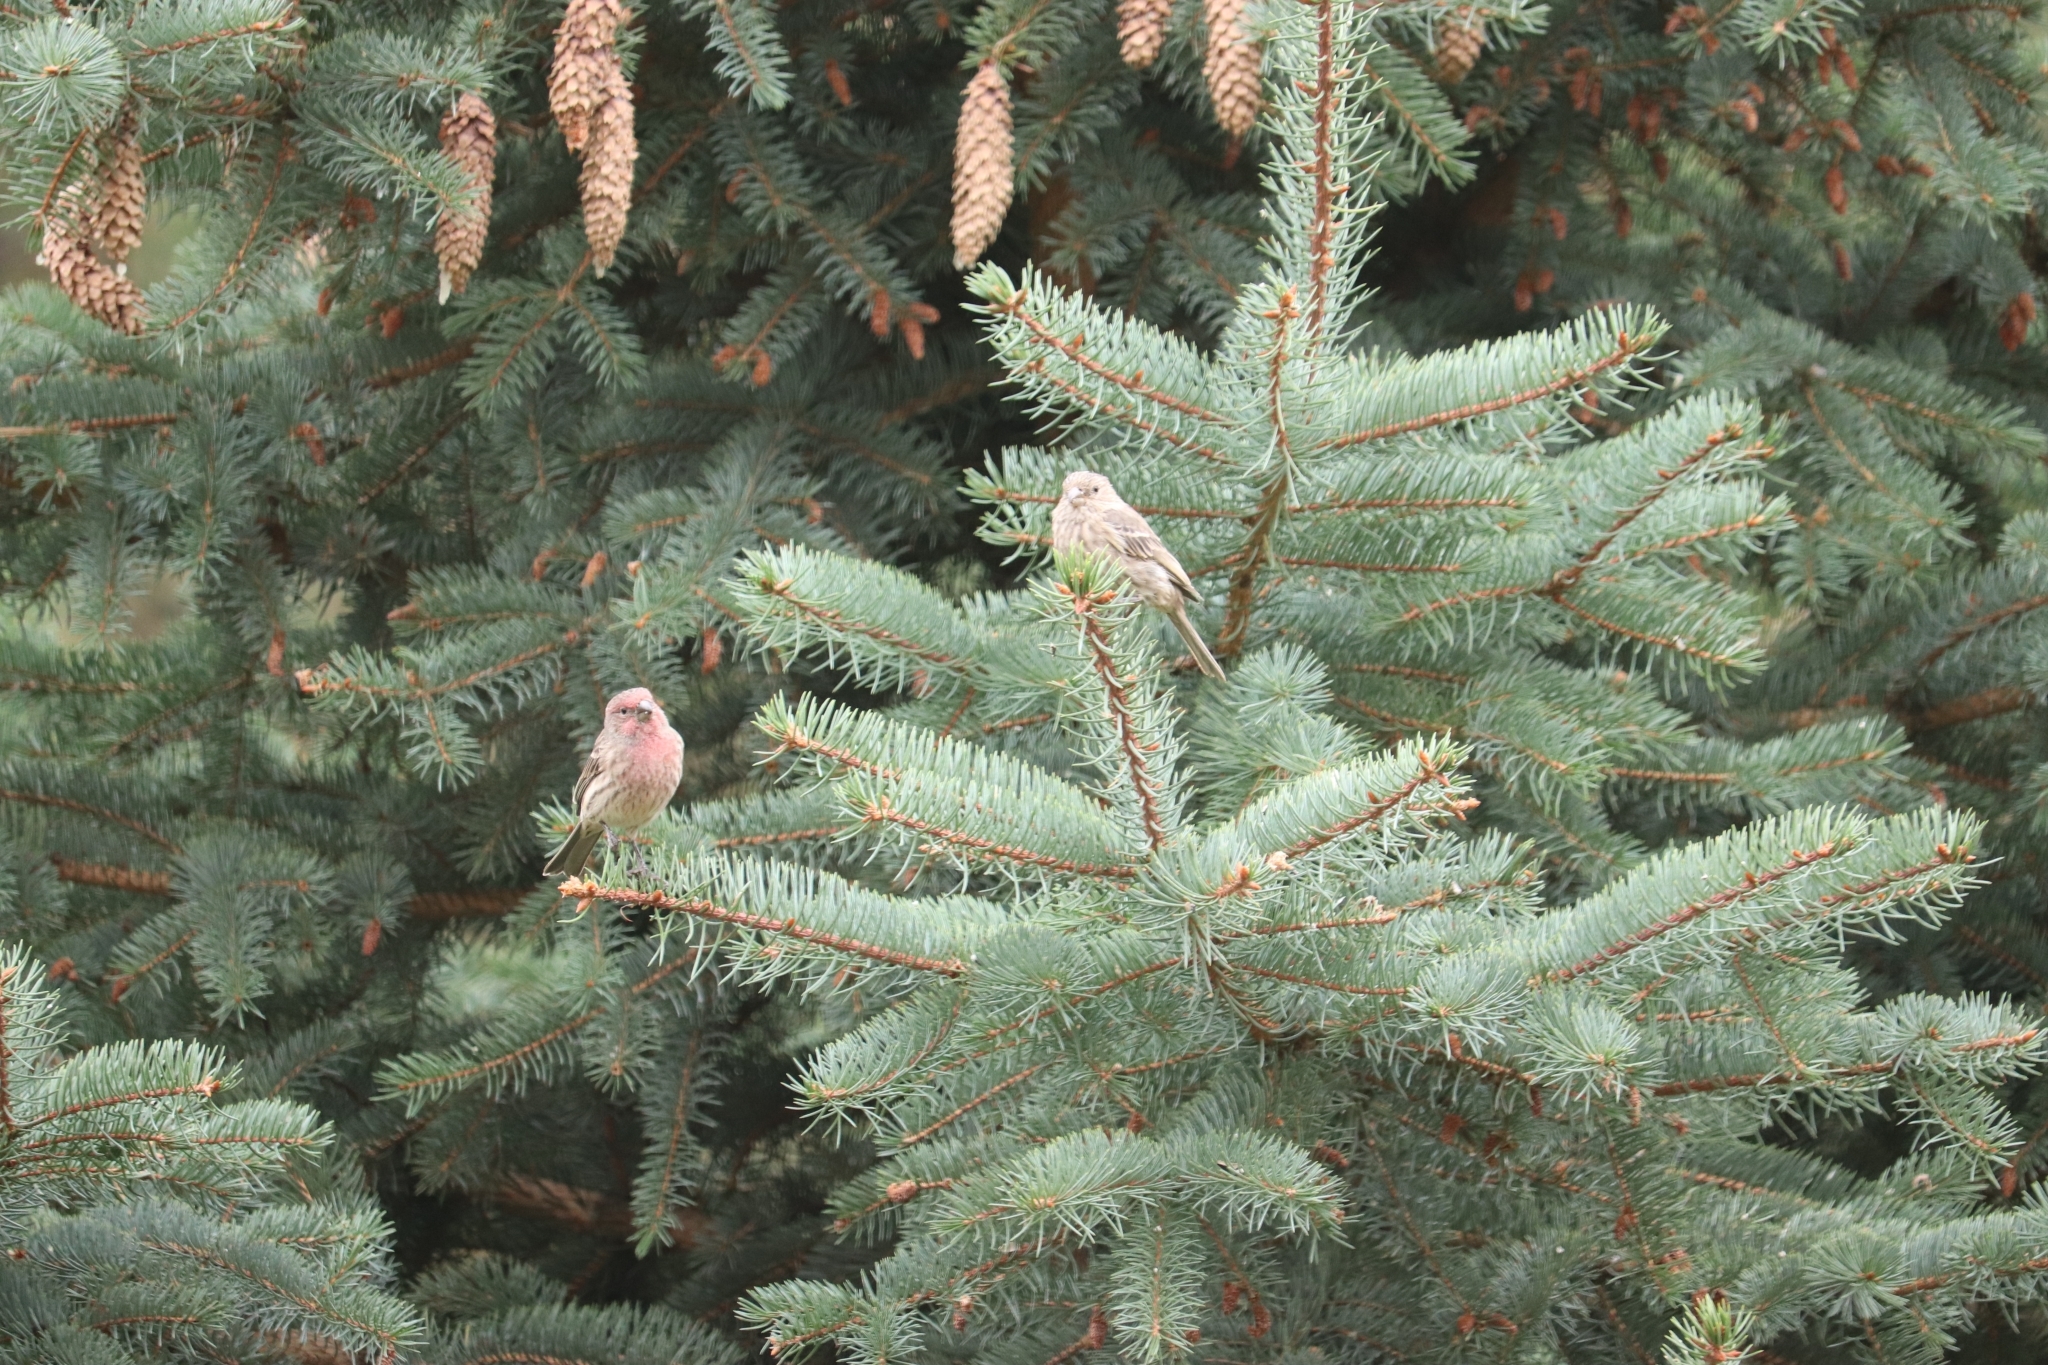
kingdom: Animalia
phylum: Chordata
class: Aves
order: Passeriformes
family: Fringillidae
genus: Haemorhous
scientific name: Haemorhous mexicanus
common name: House finch
